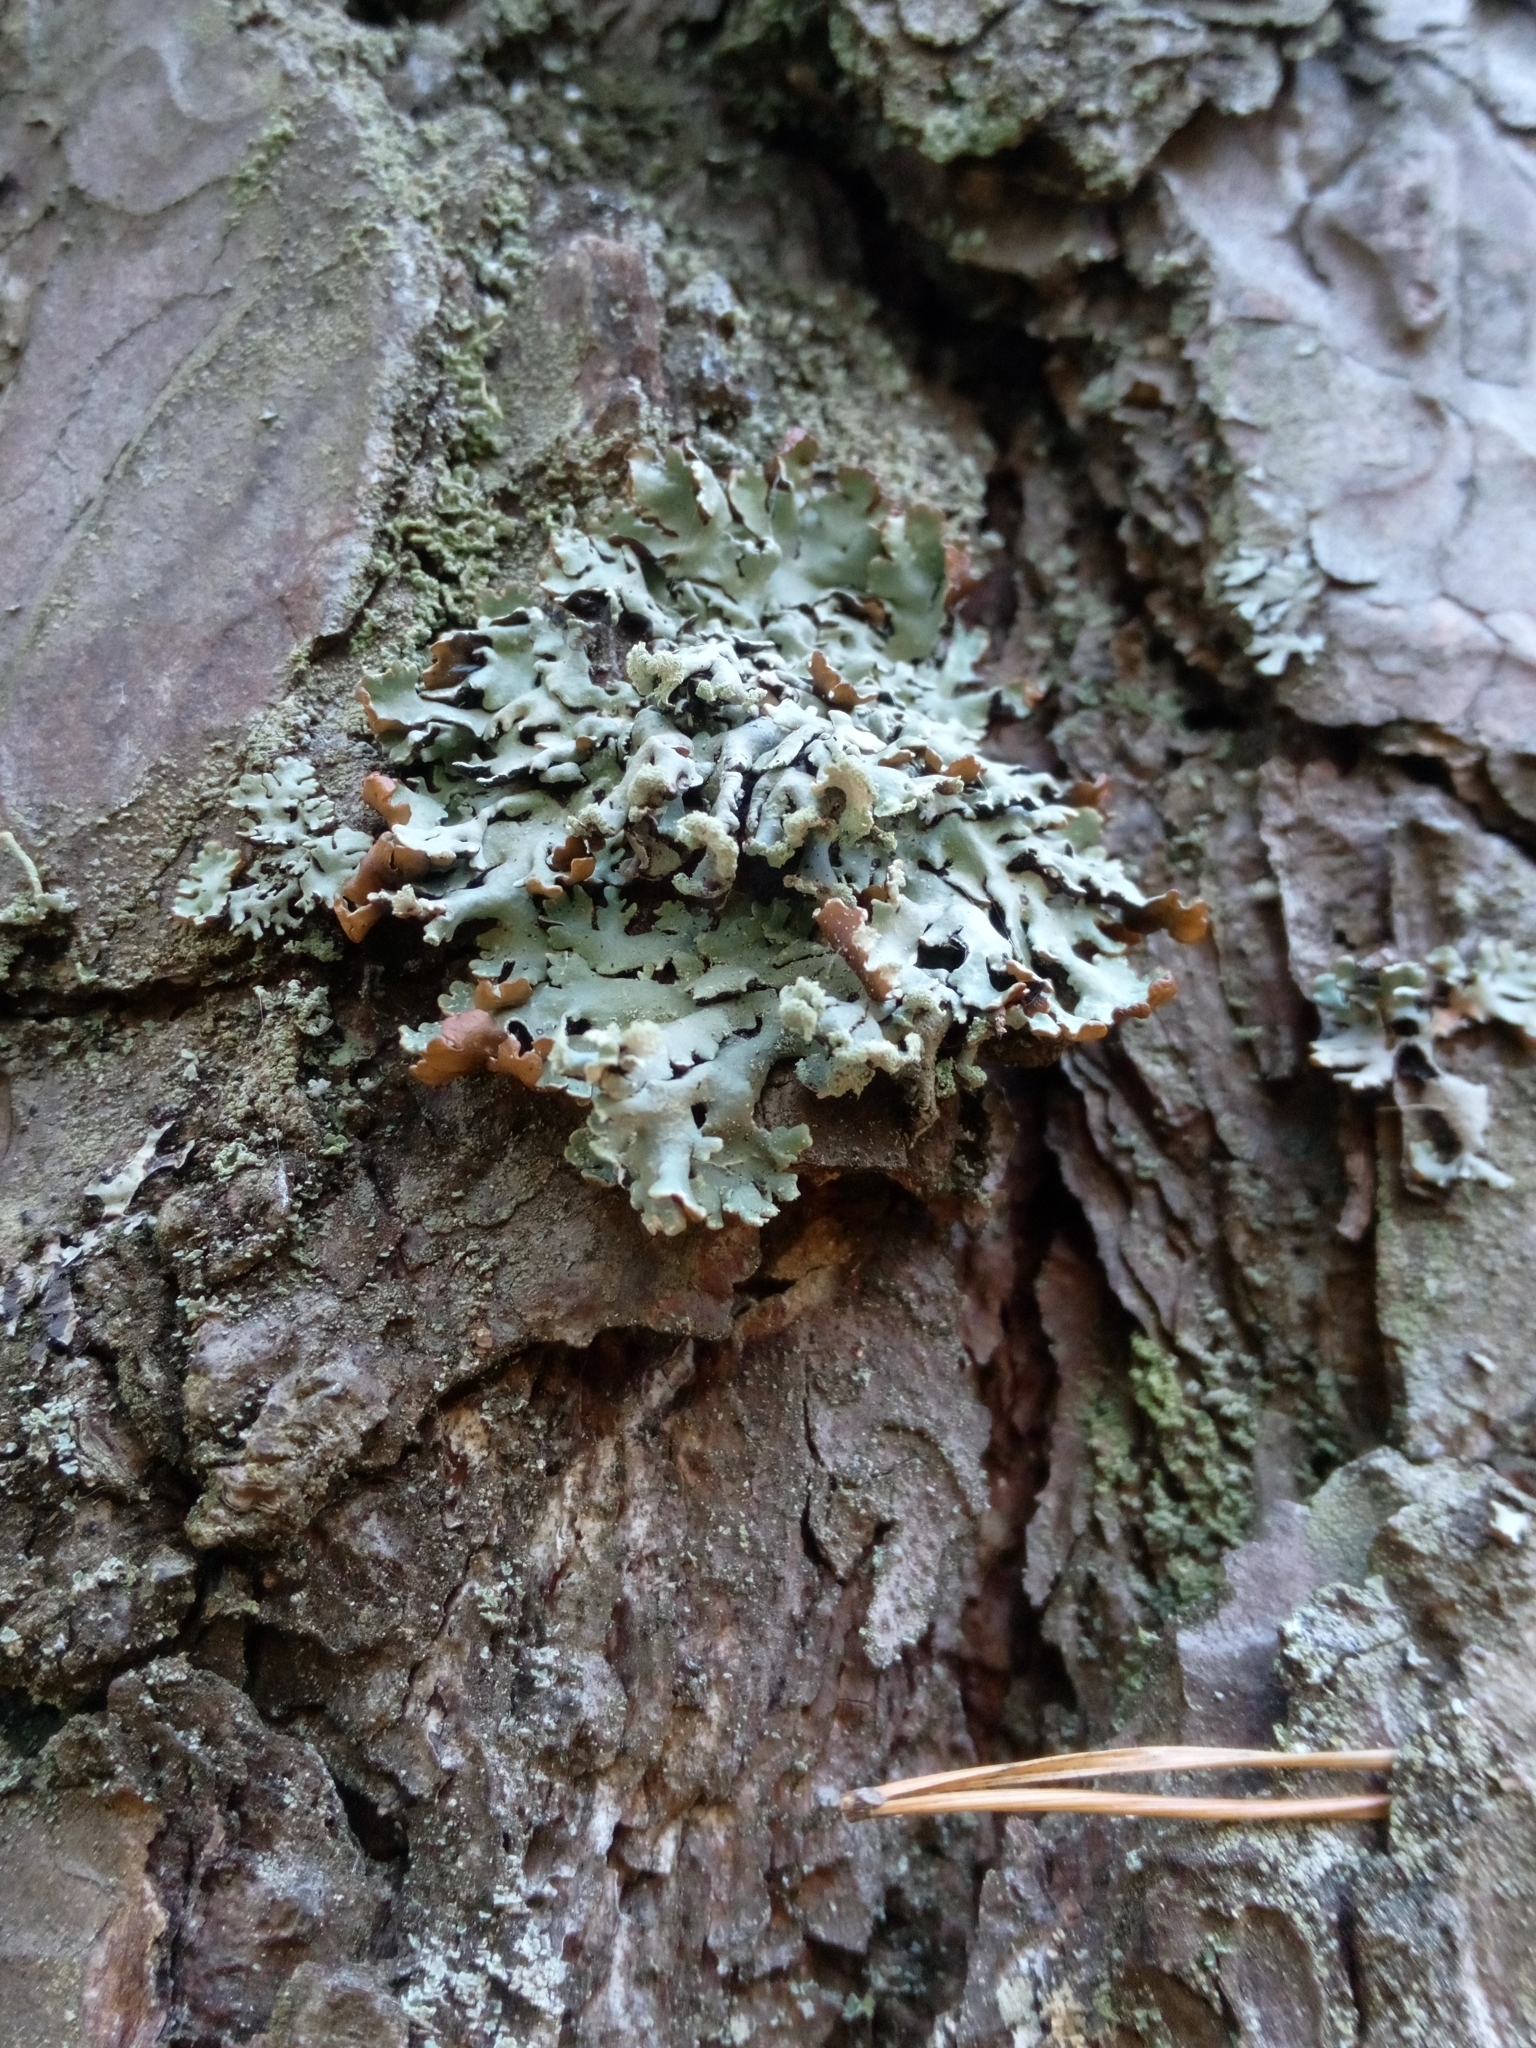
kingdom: Fungi
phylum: Ascomycota
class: Lecanoromycetes
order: Lecanorales
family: Parmeliaceae
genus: Hypogymnia
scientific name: Hypogymnia physodes
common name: Dark crottle
